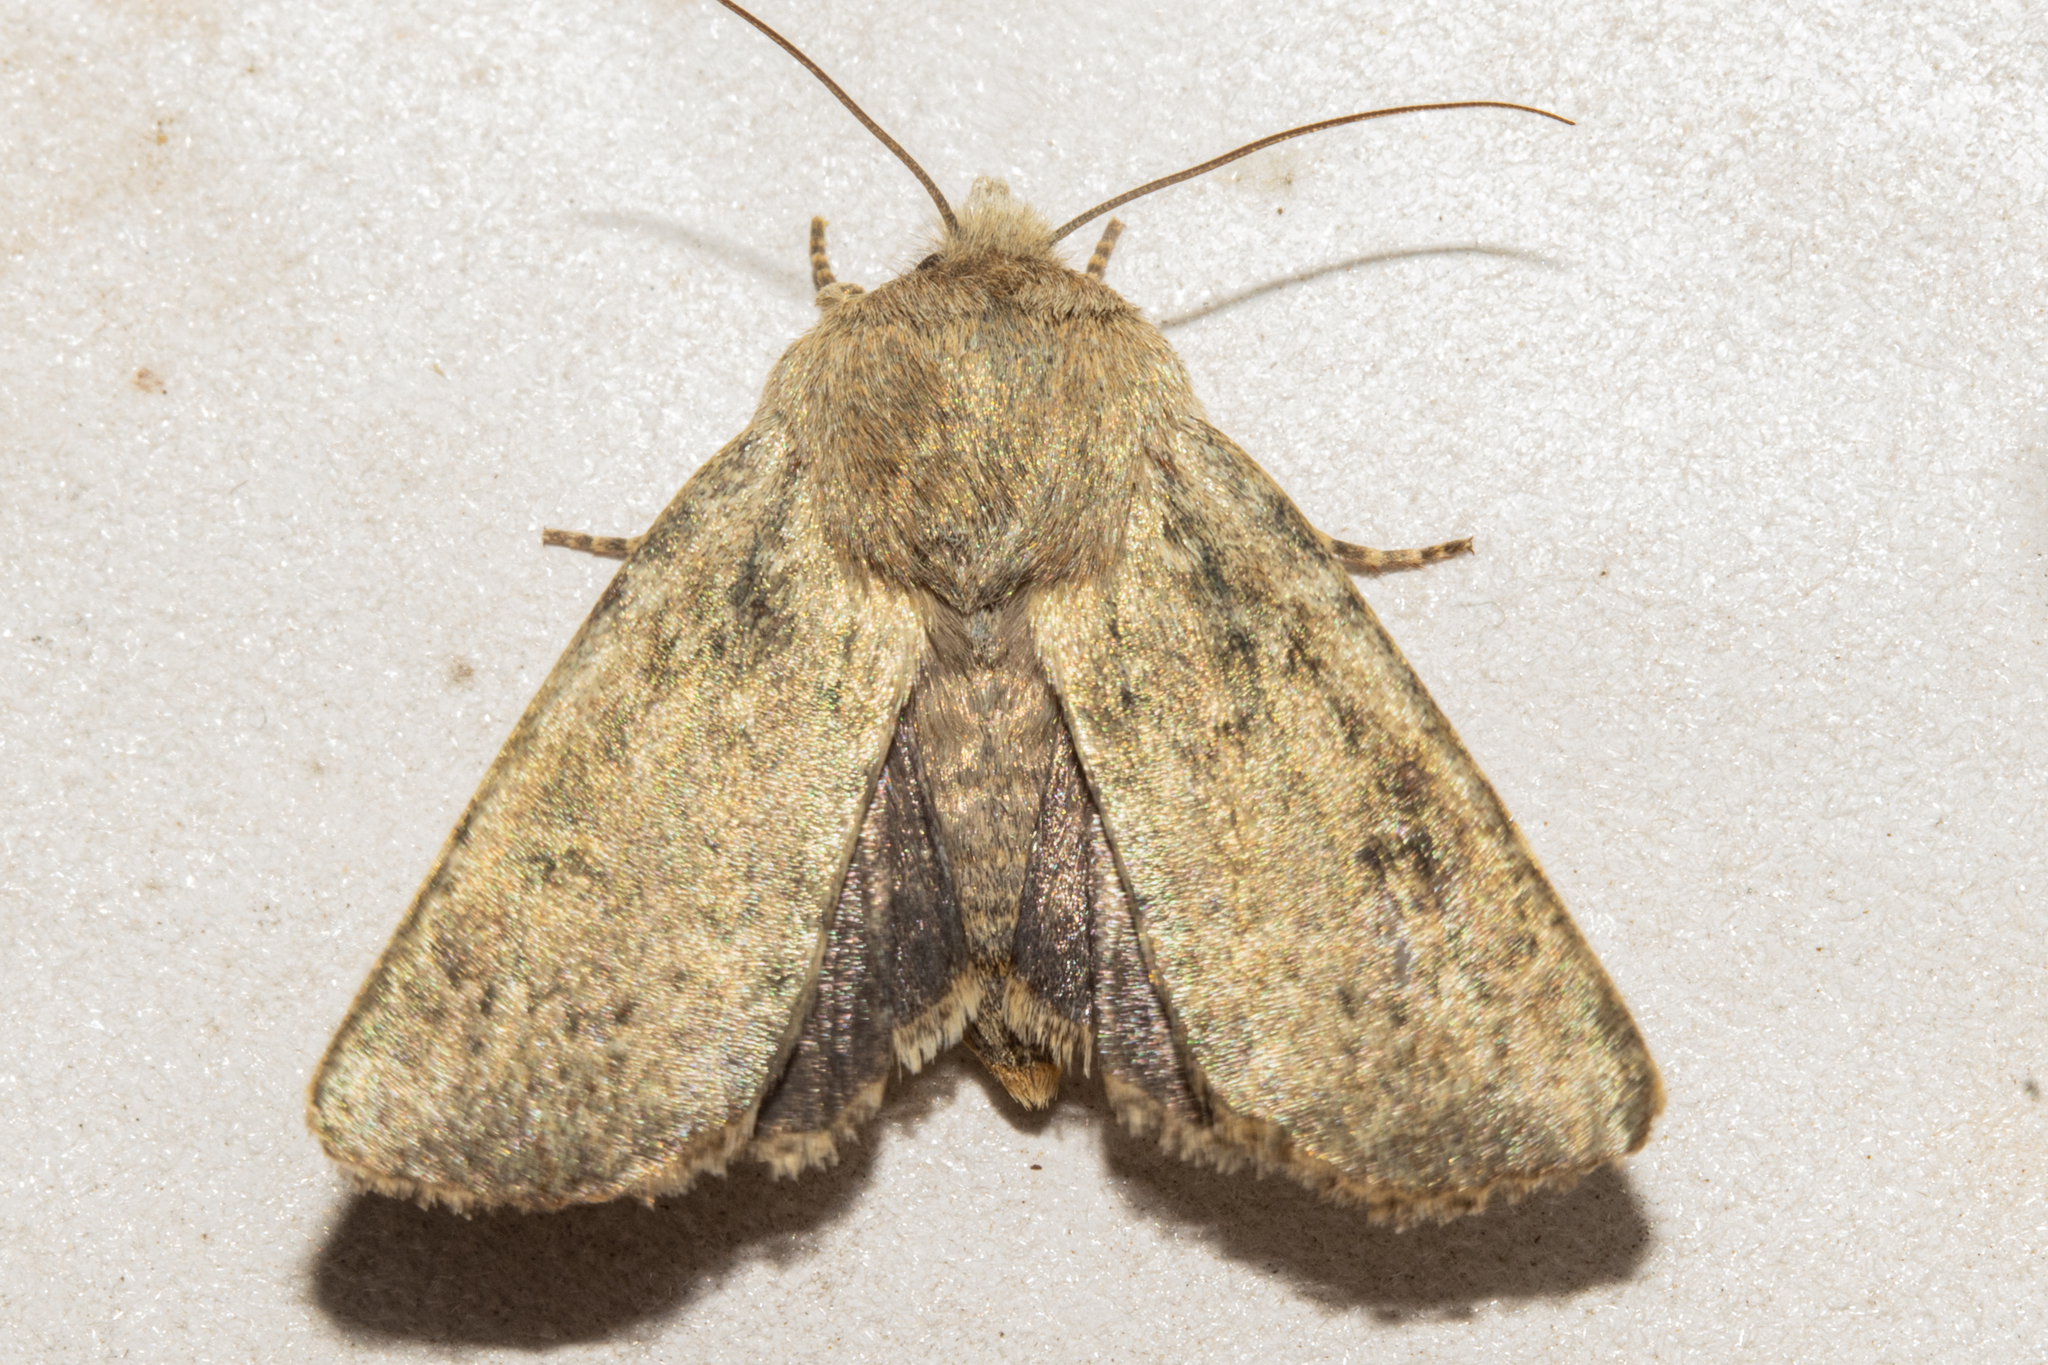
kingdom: Animalia
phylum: Arthropoda
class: Insecta
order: Lepidoptera
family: Noctuidae
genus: Physetica
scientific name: Physetica caerulea
